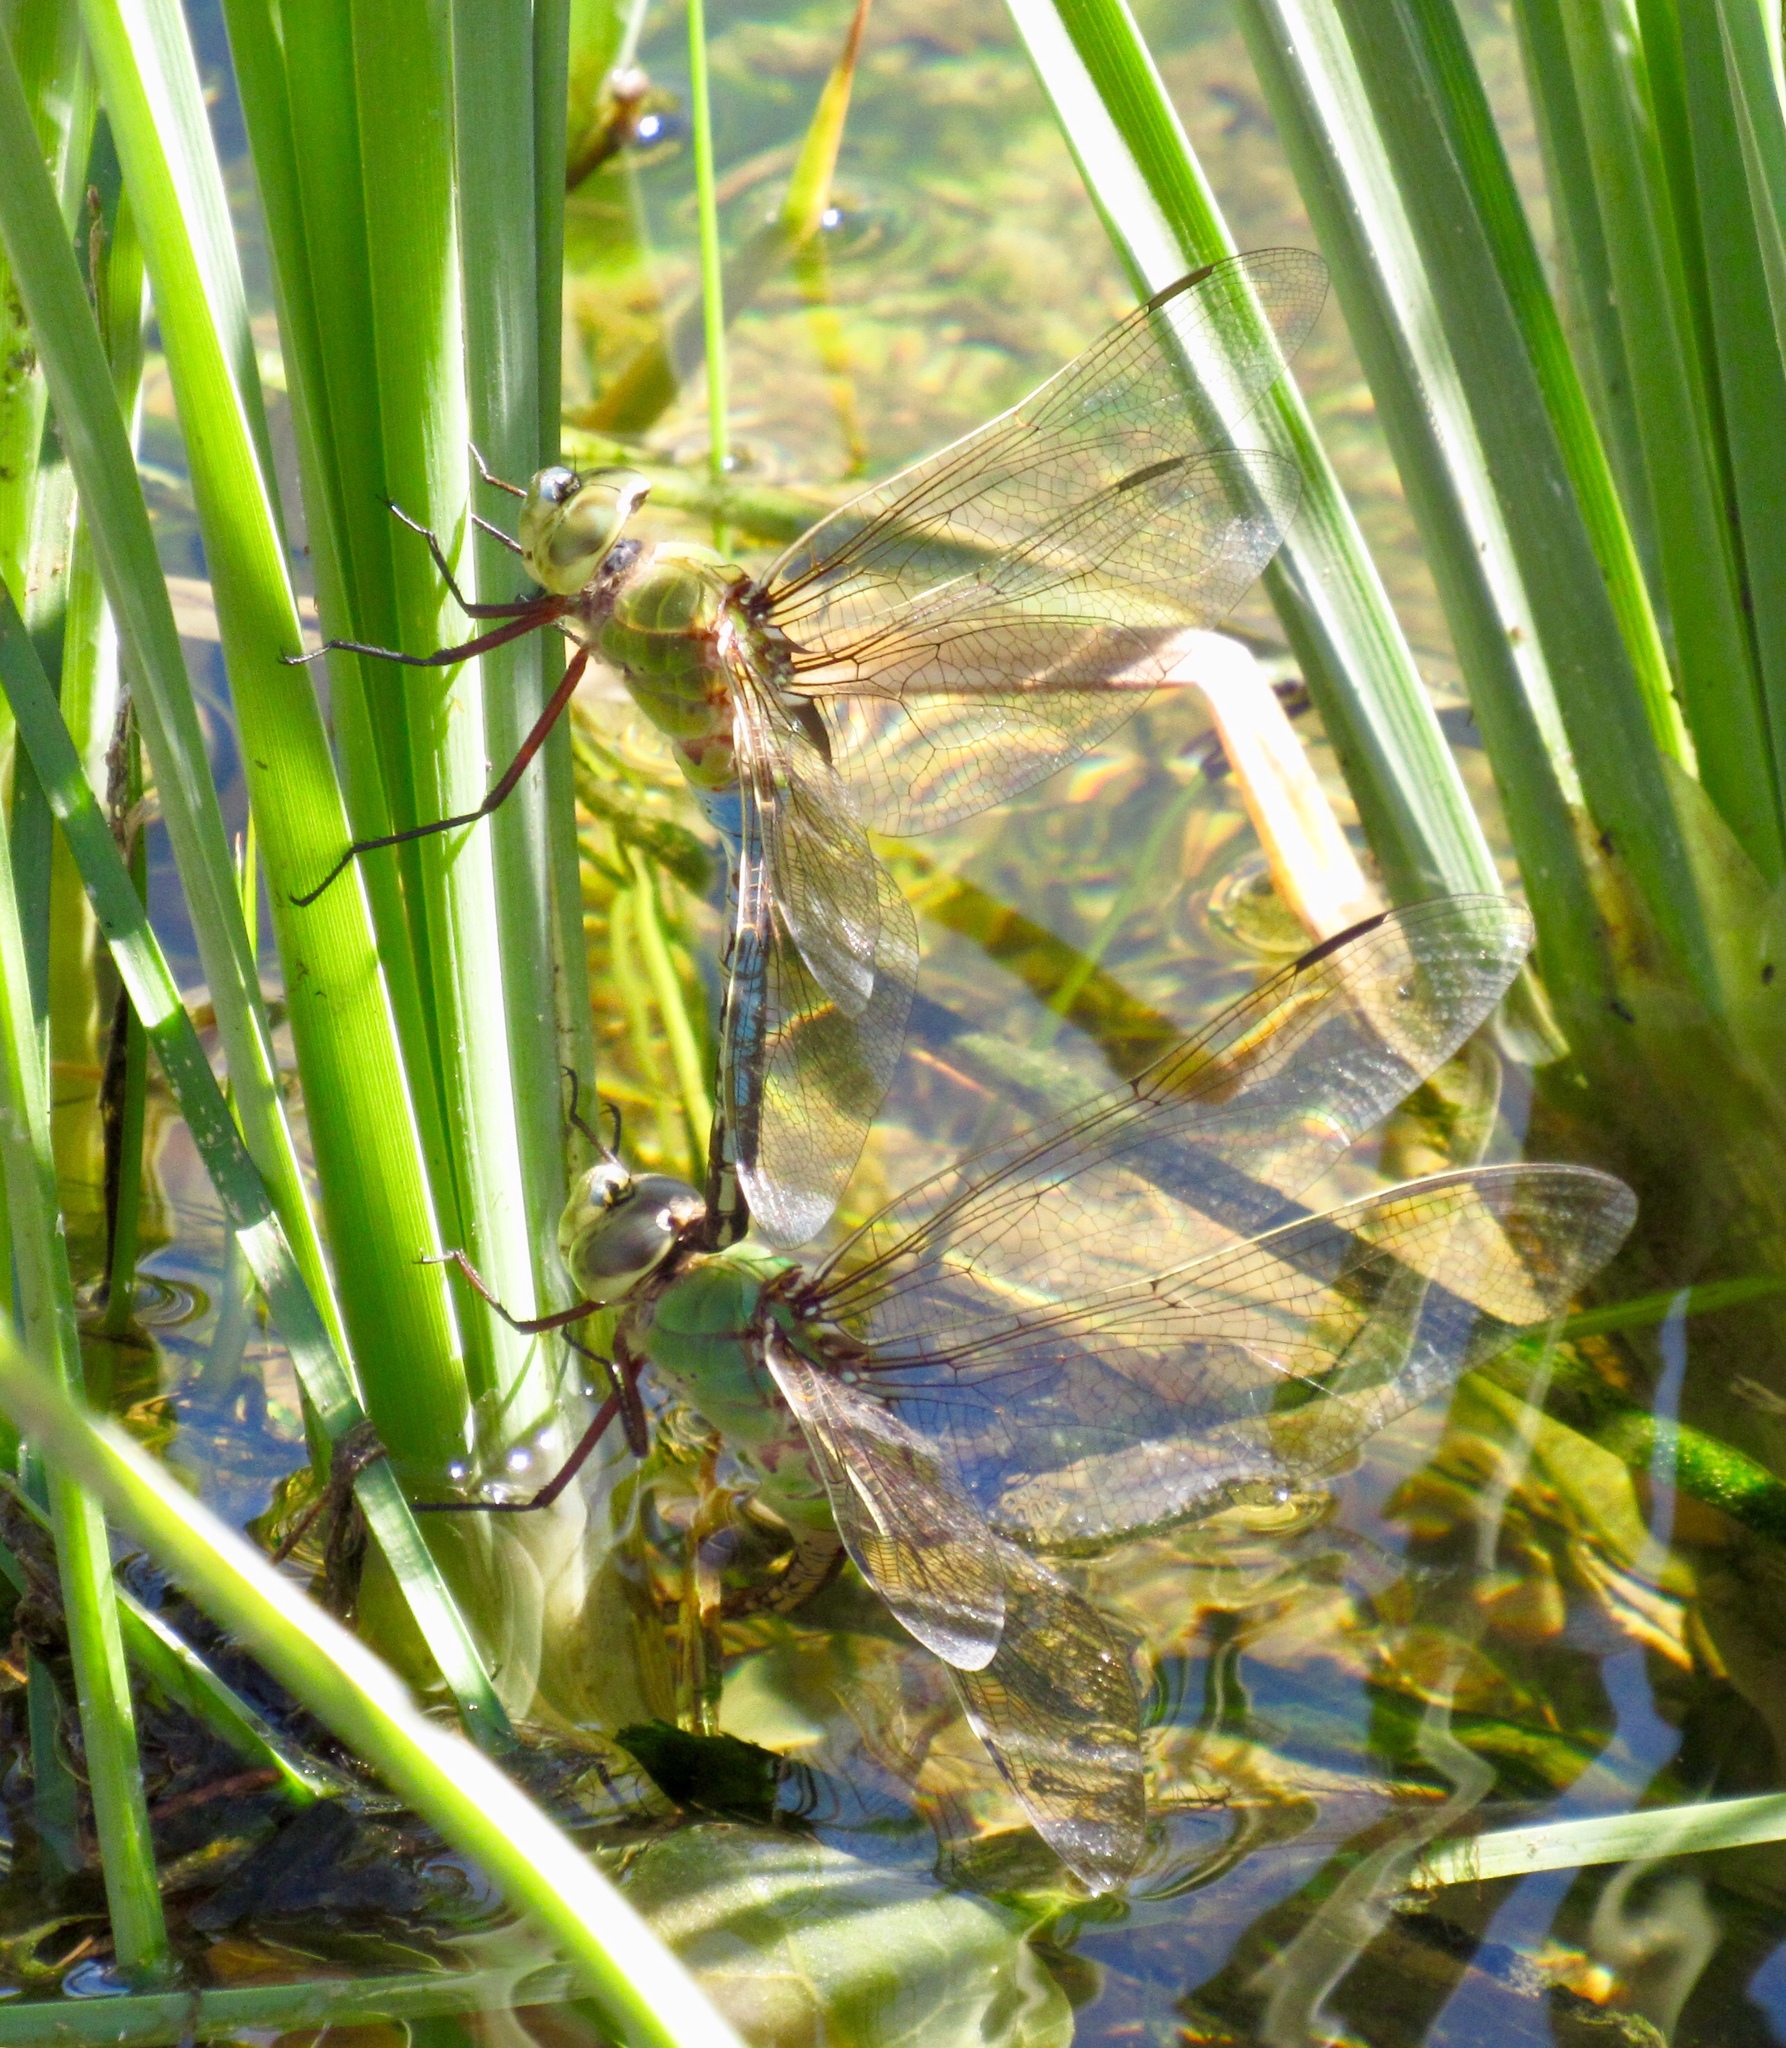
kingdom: Animalia
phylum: Arthropoda
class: Insecta
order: Odonata
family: Aeshnidae
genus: Anax
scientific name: Anax junius
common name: Common green darner
